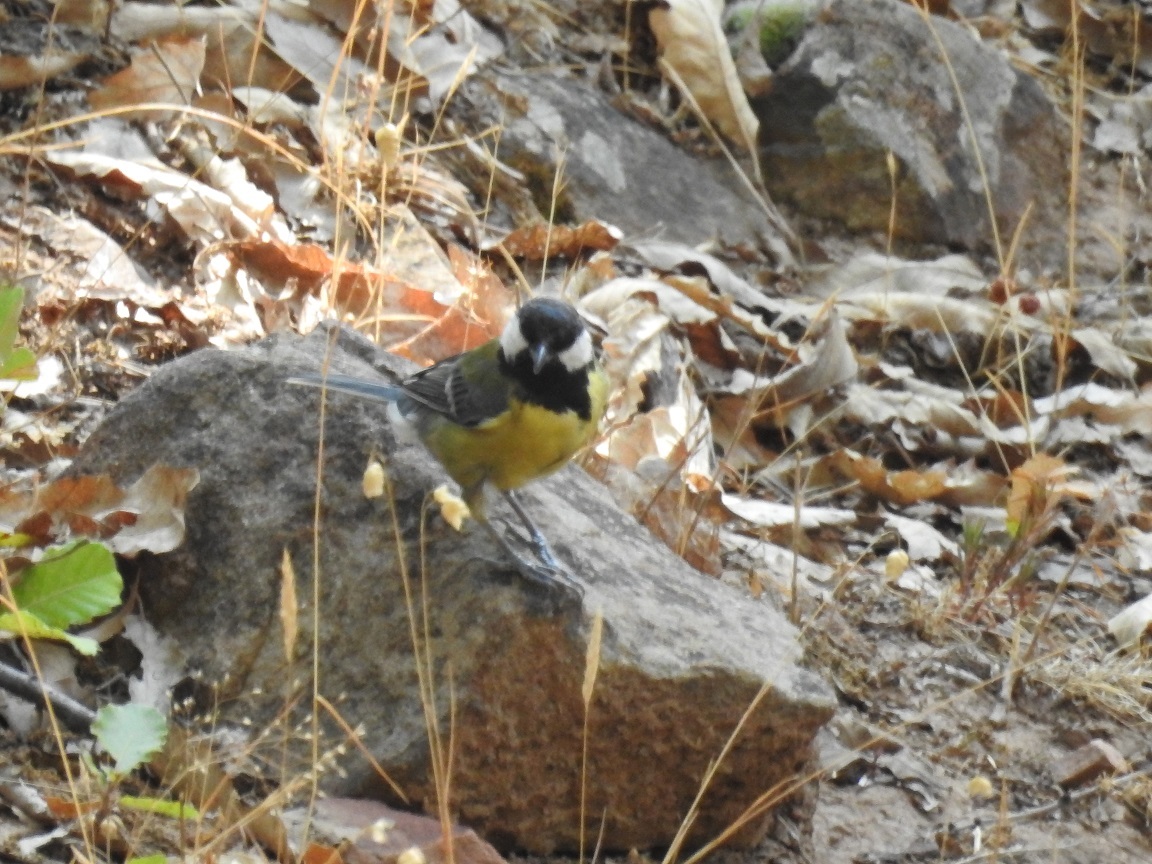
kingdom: Animalia
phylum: Chordata
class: Aves
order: Passeriformes
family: Paridae
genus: Parus
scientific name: Parus major
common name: Great tit
